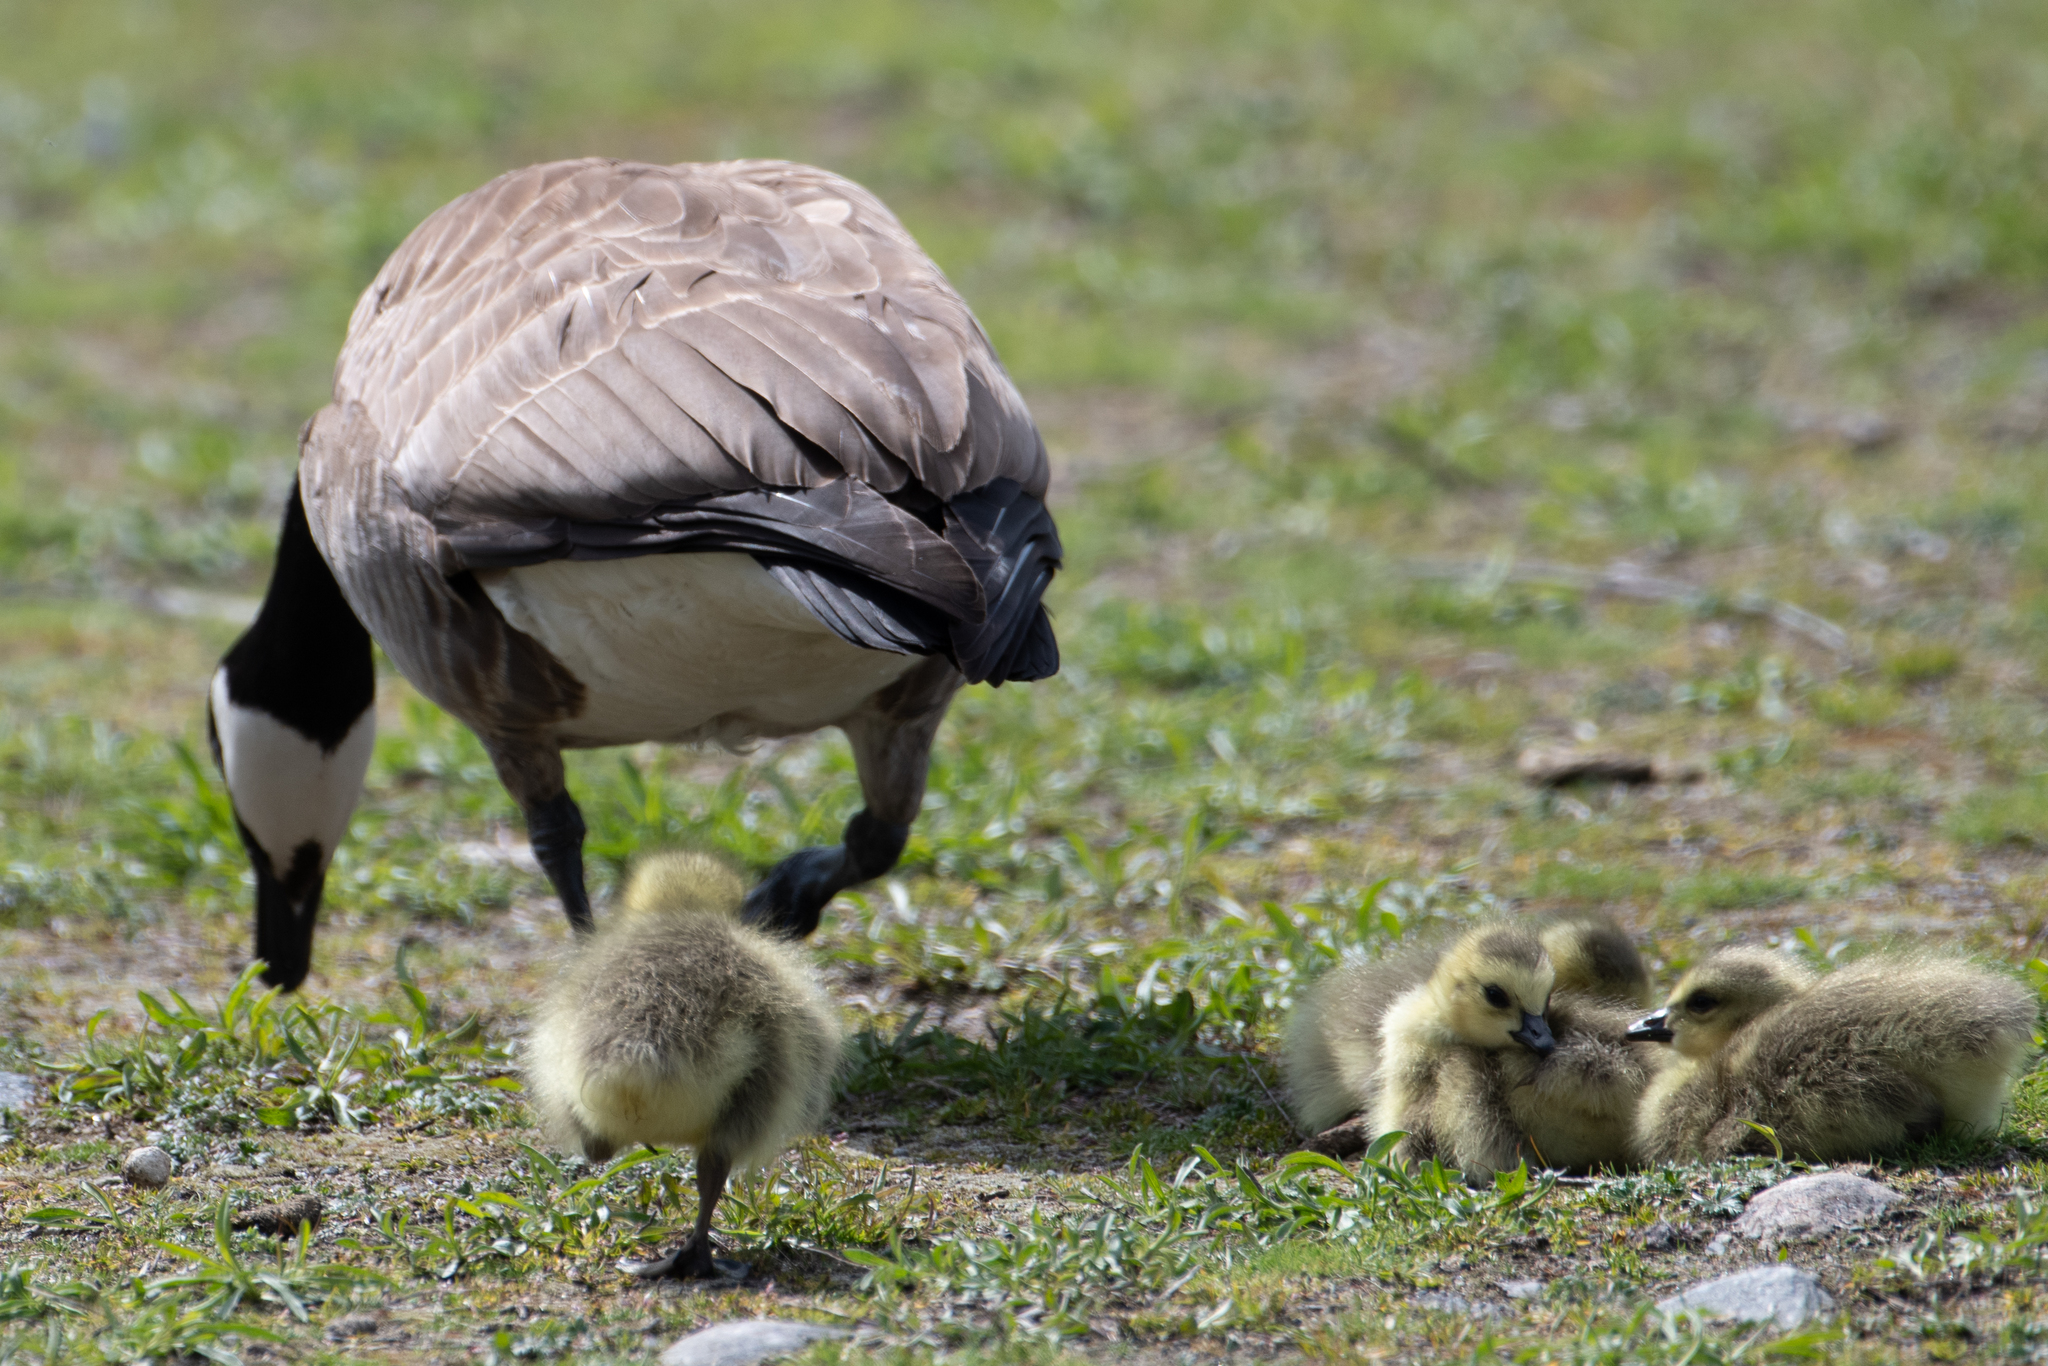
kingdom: Animalia
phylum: Chordata
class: Aves
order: Anseriformes
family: Anatidae
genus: Branta
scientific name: Branta canadensis
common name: Canada goose
